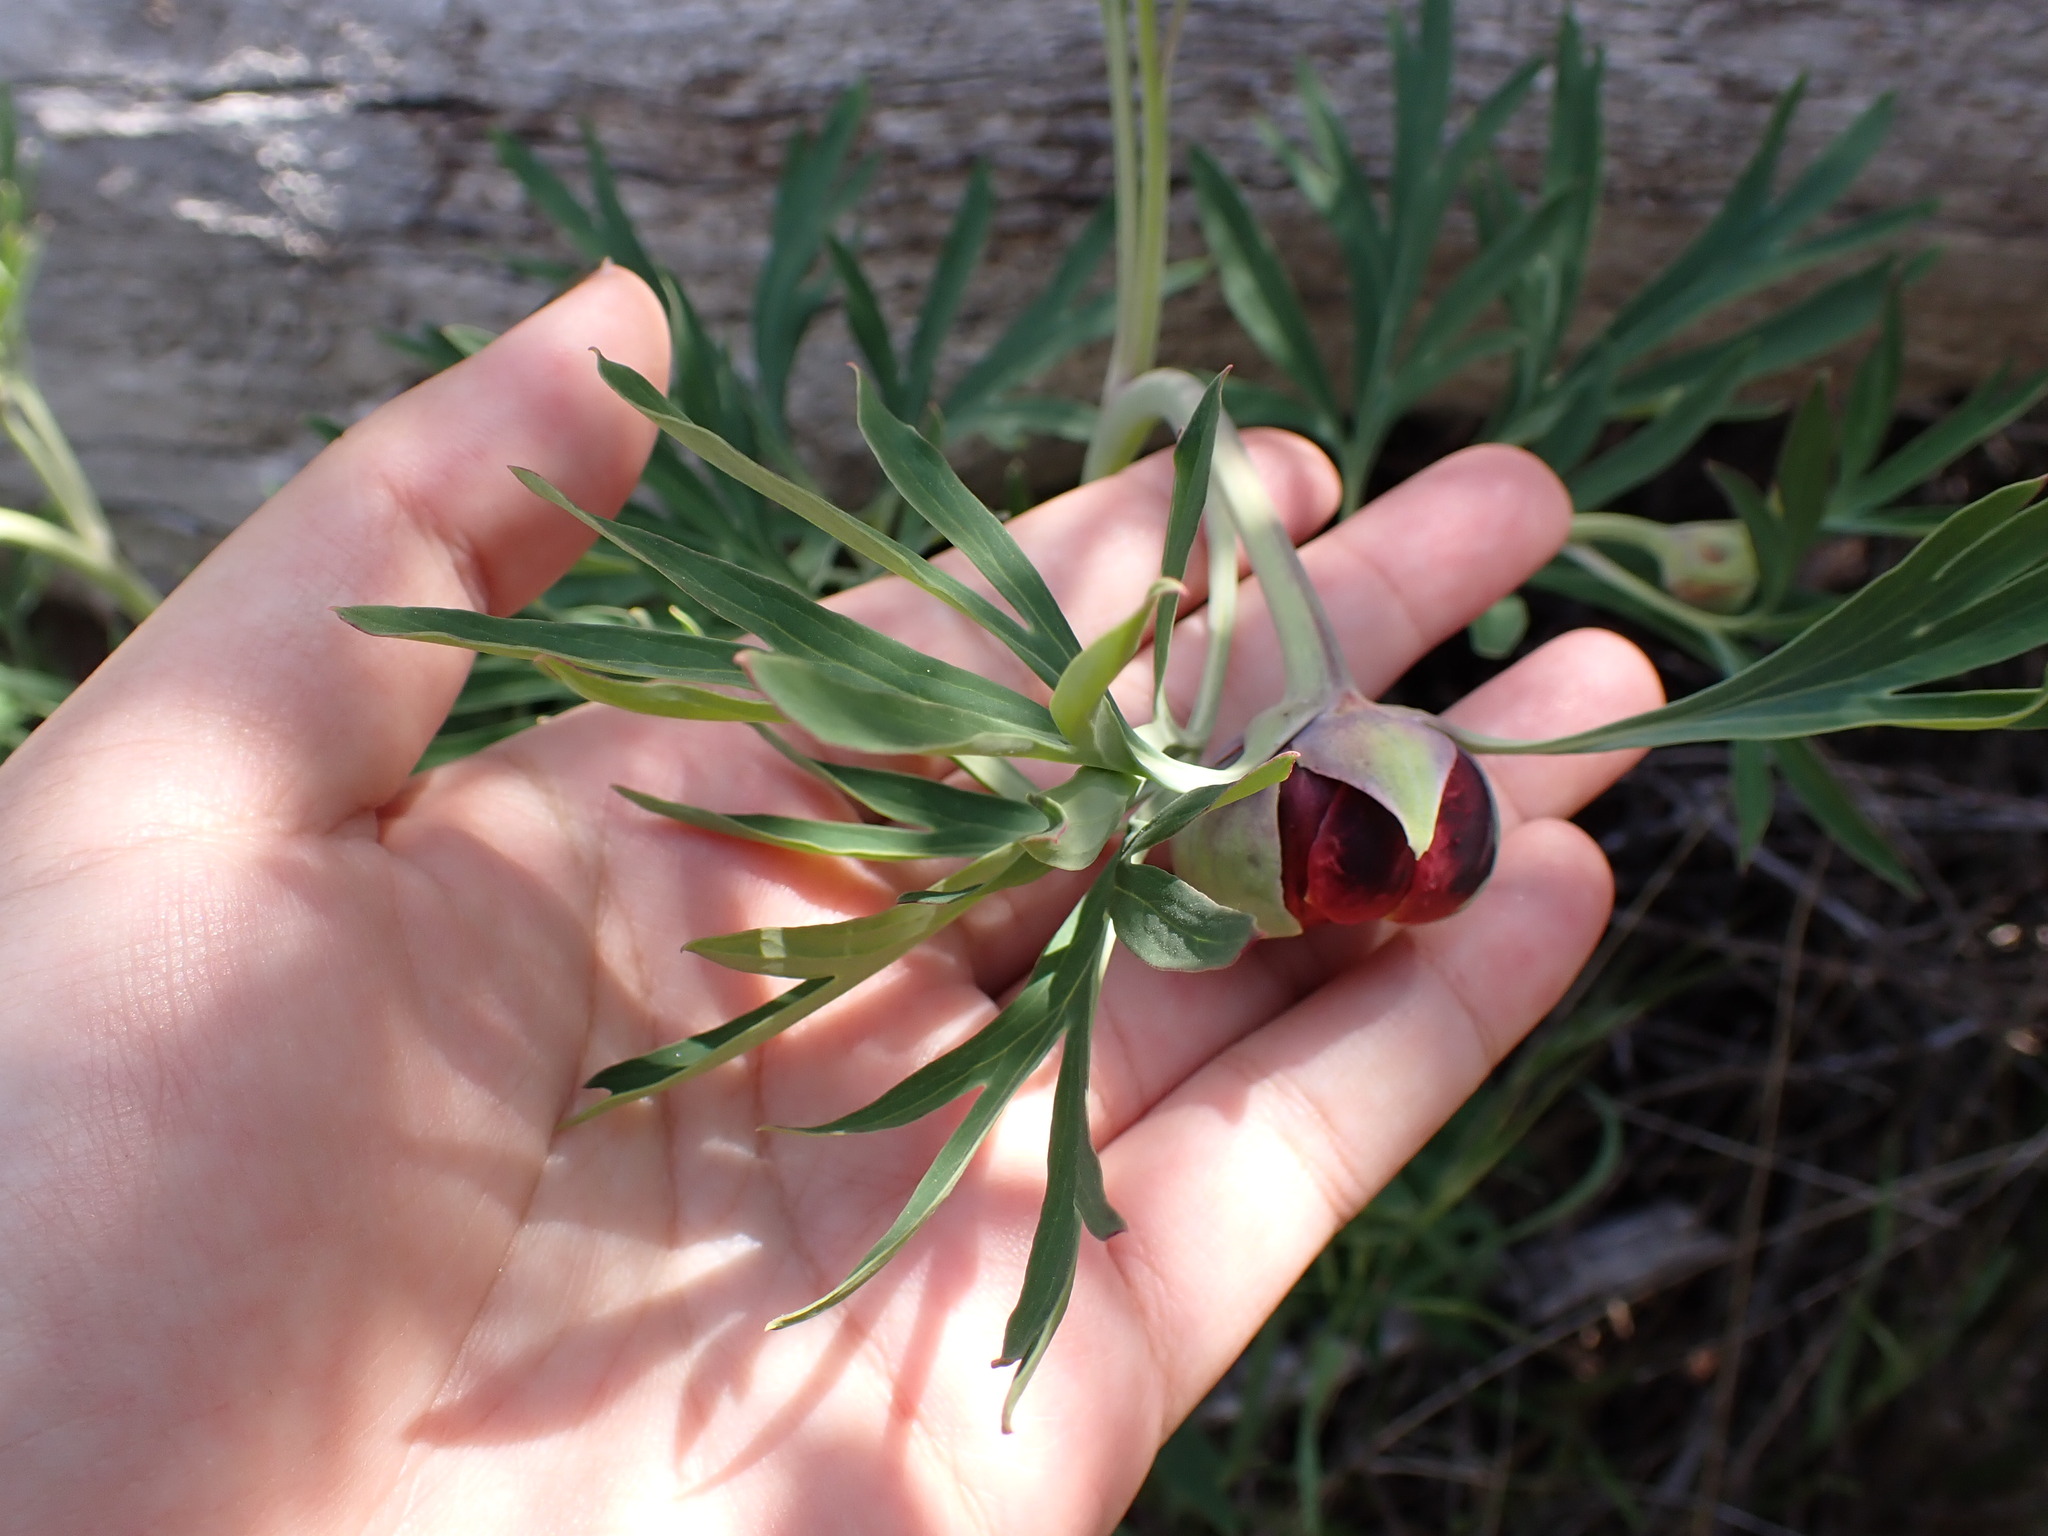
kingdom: Plantae
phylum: Tracheophyta
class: Magnoliopsida
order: Saxifragales
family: Paeoniaceae
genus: Paeonia
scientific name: Paeonia californica
